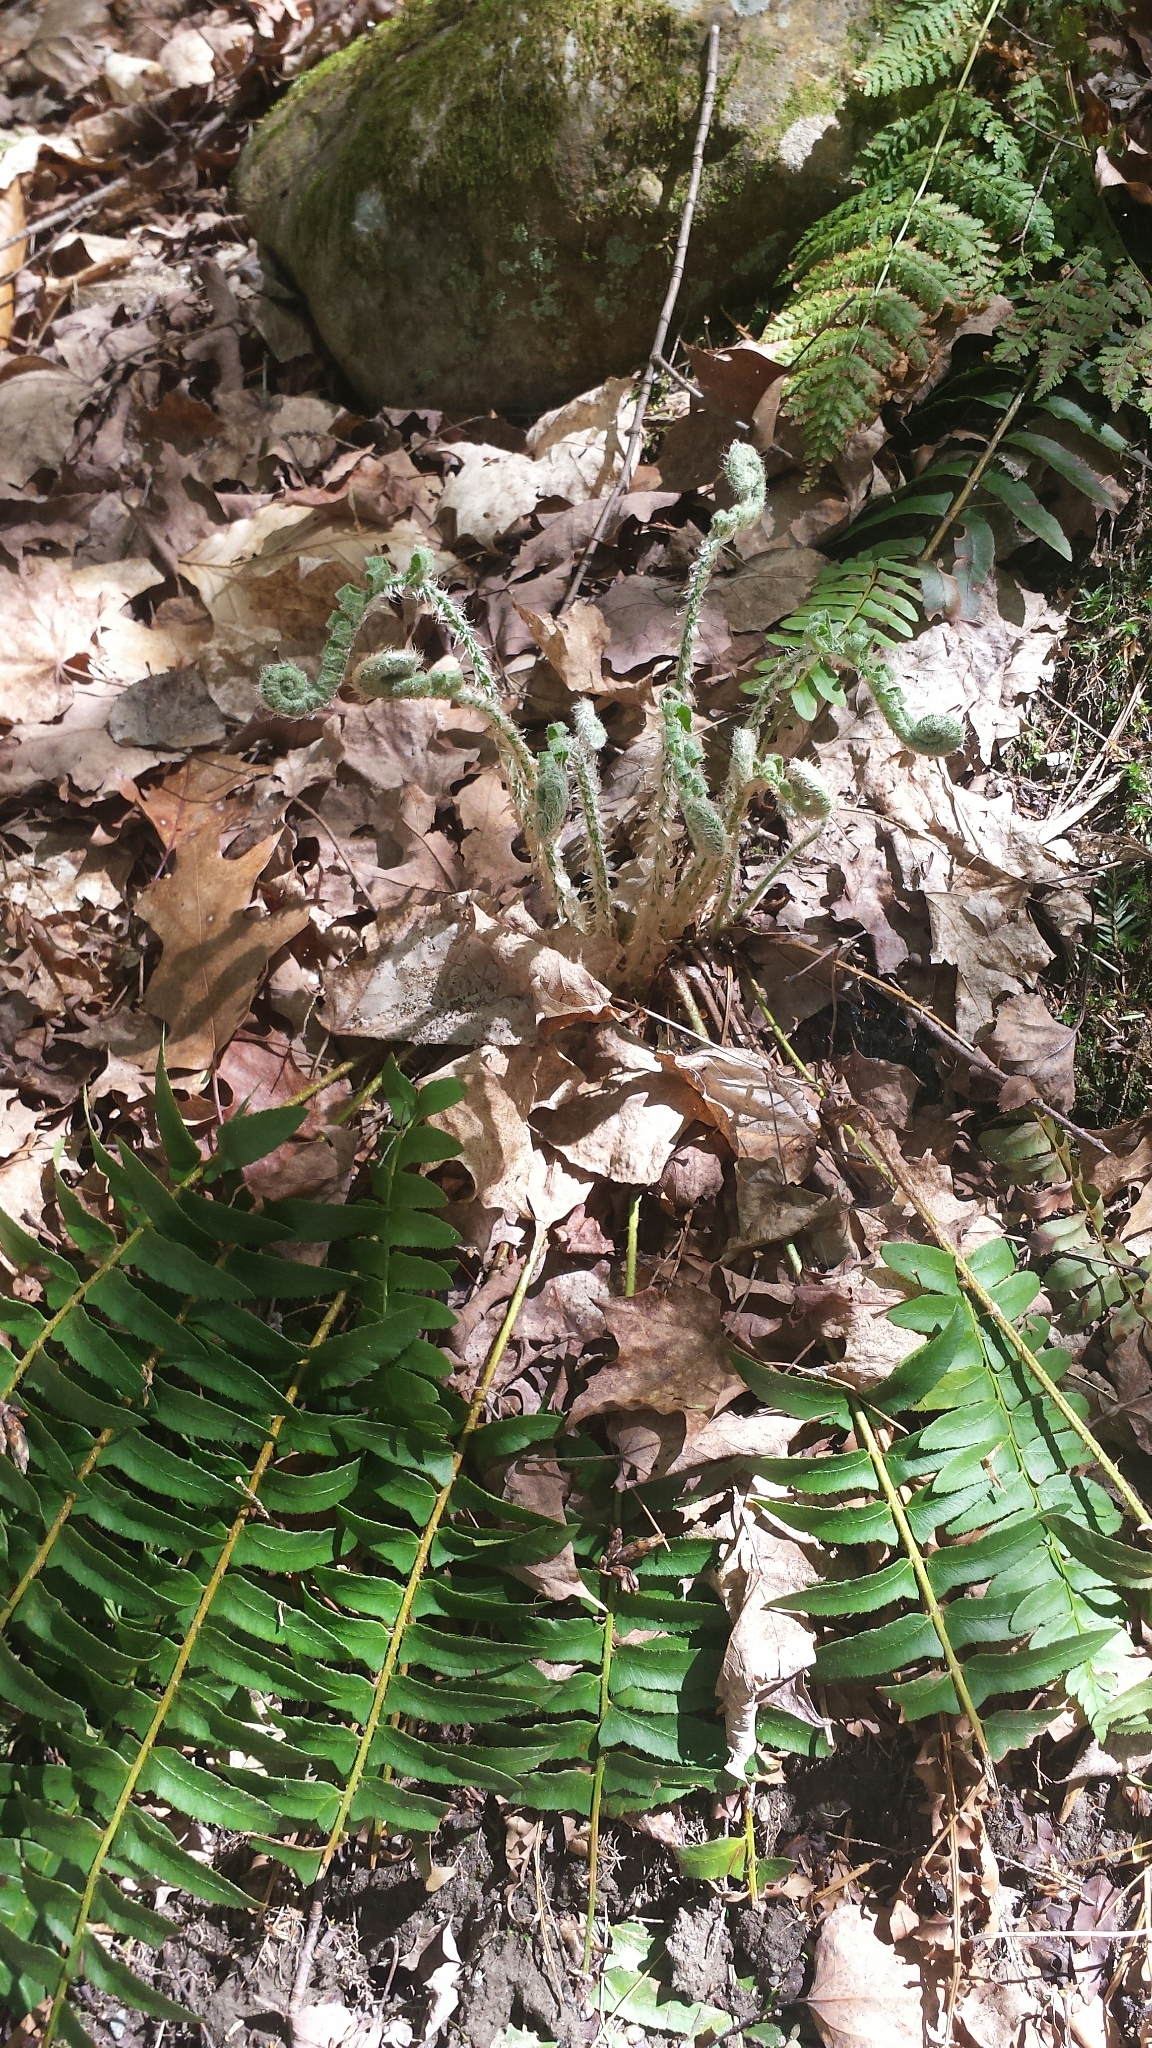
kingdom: Plantae
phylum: Tracheophyta
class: Polypodiopsida
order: Polypodiales
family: Dryopteridaceae
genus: Polystichum
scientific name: Polystichum acrostichoides
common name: Christmas fern
